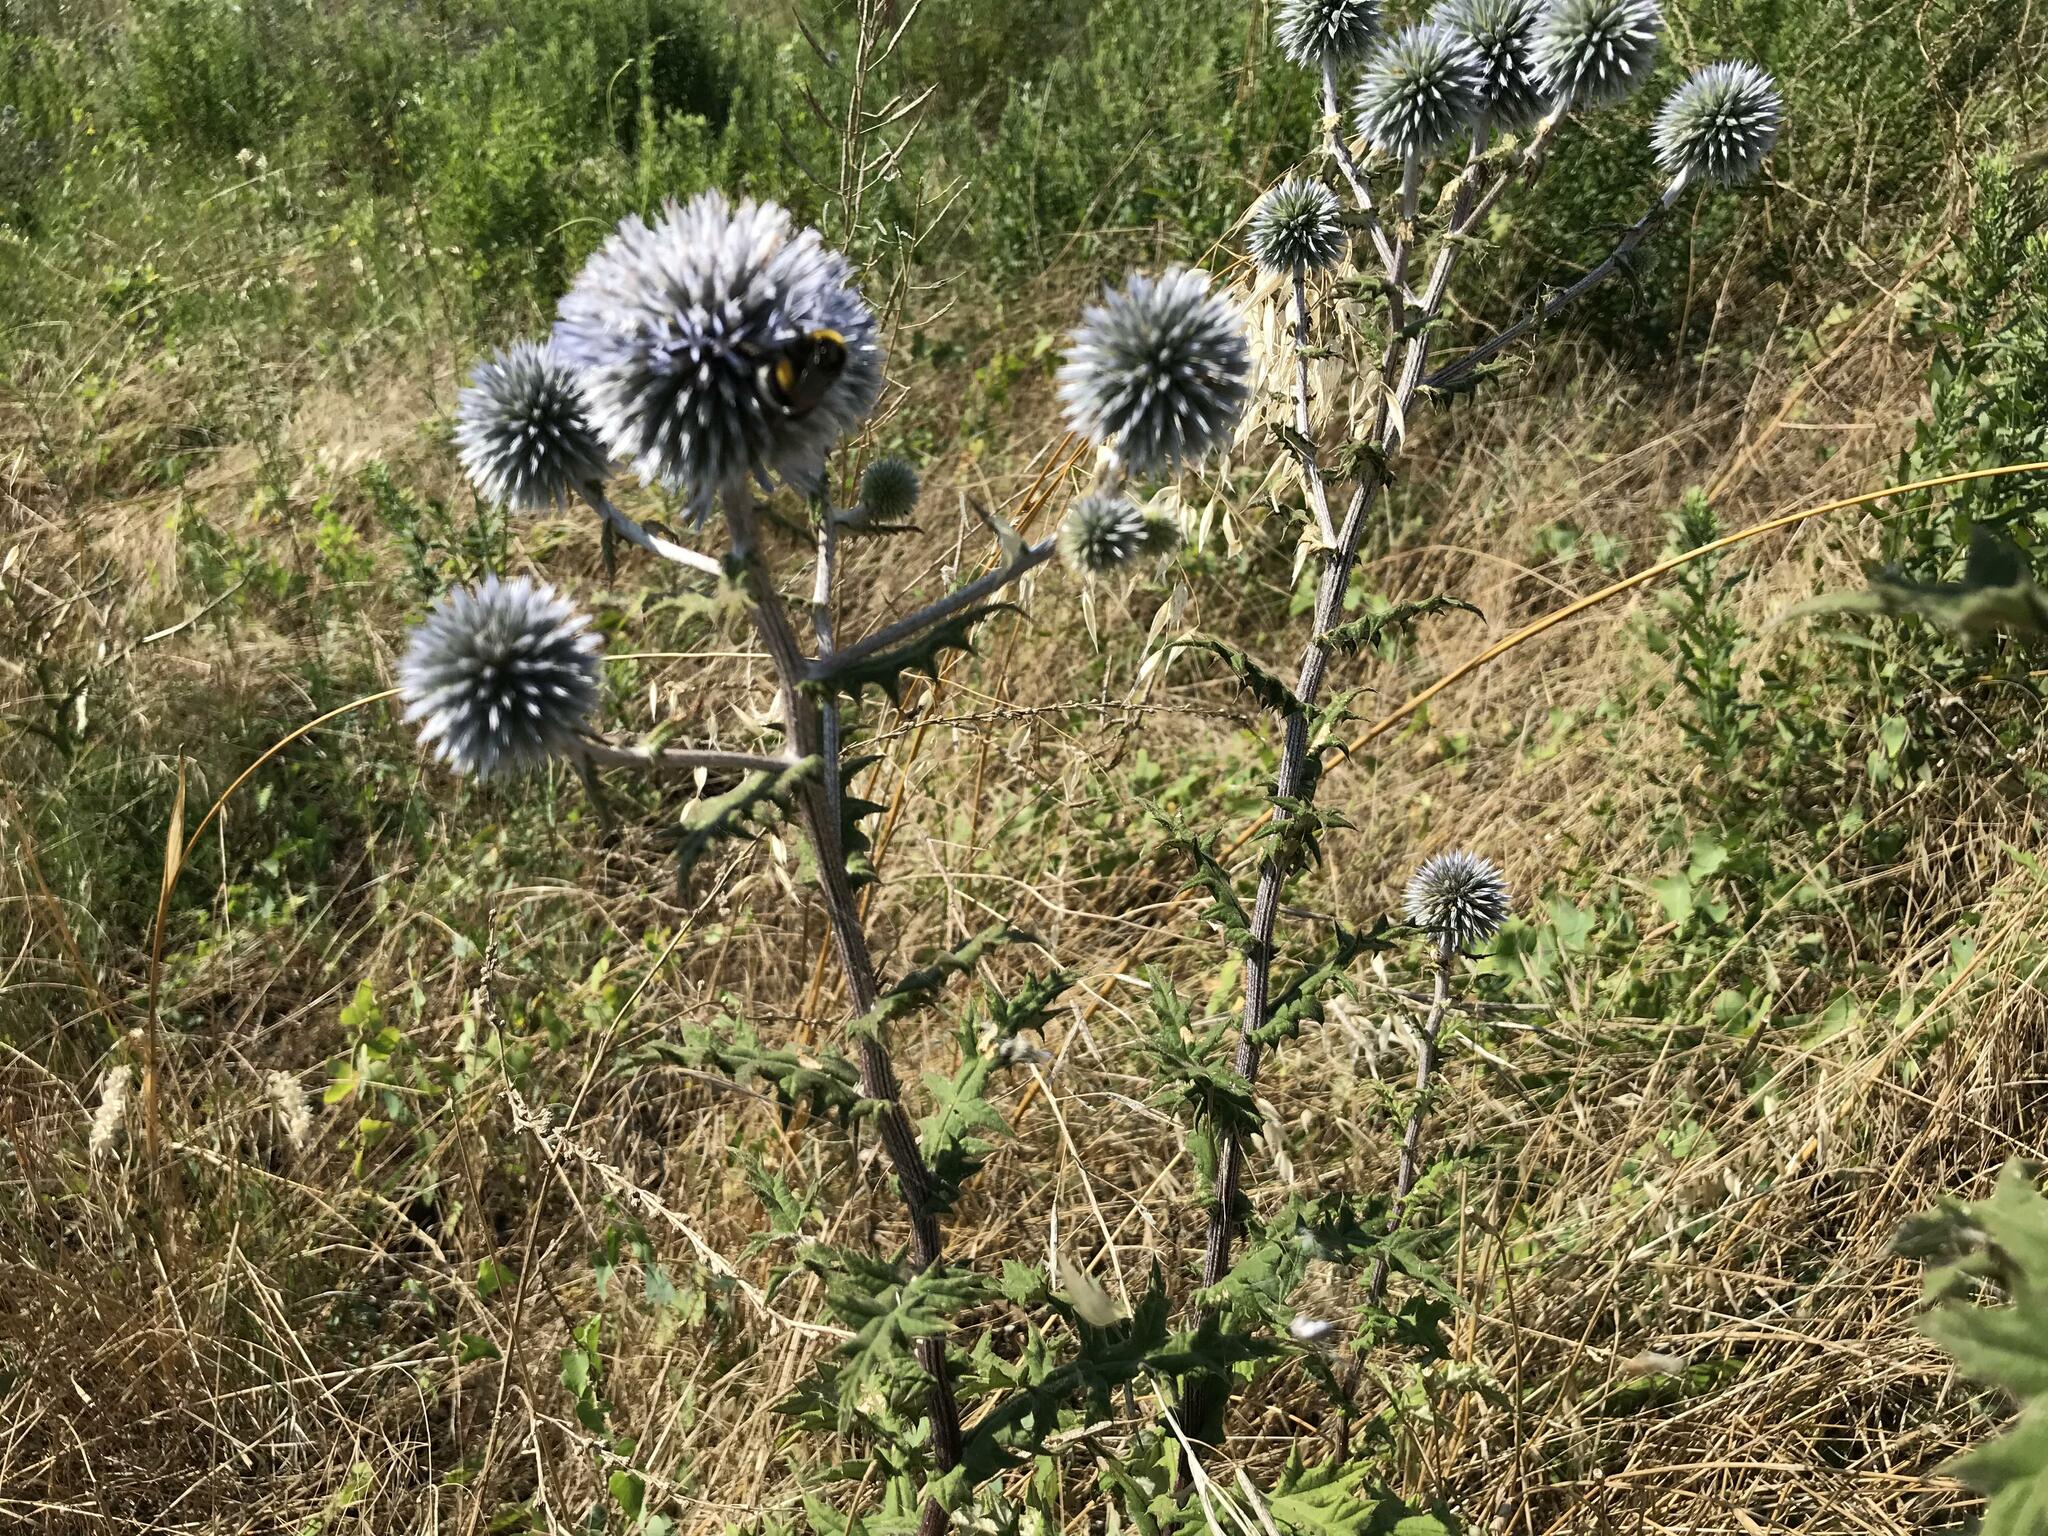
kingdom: Plantae
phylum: Tracheophyta
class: Magnoliopsida
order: Asterales
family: Asteraceae
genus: Echinops
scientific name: Echinops sphaerocephalus
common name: Glandular globe-thistle
